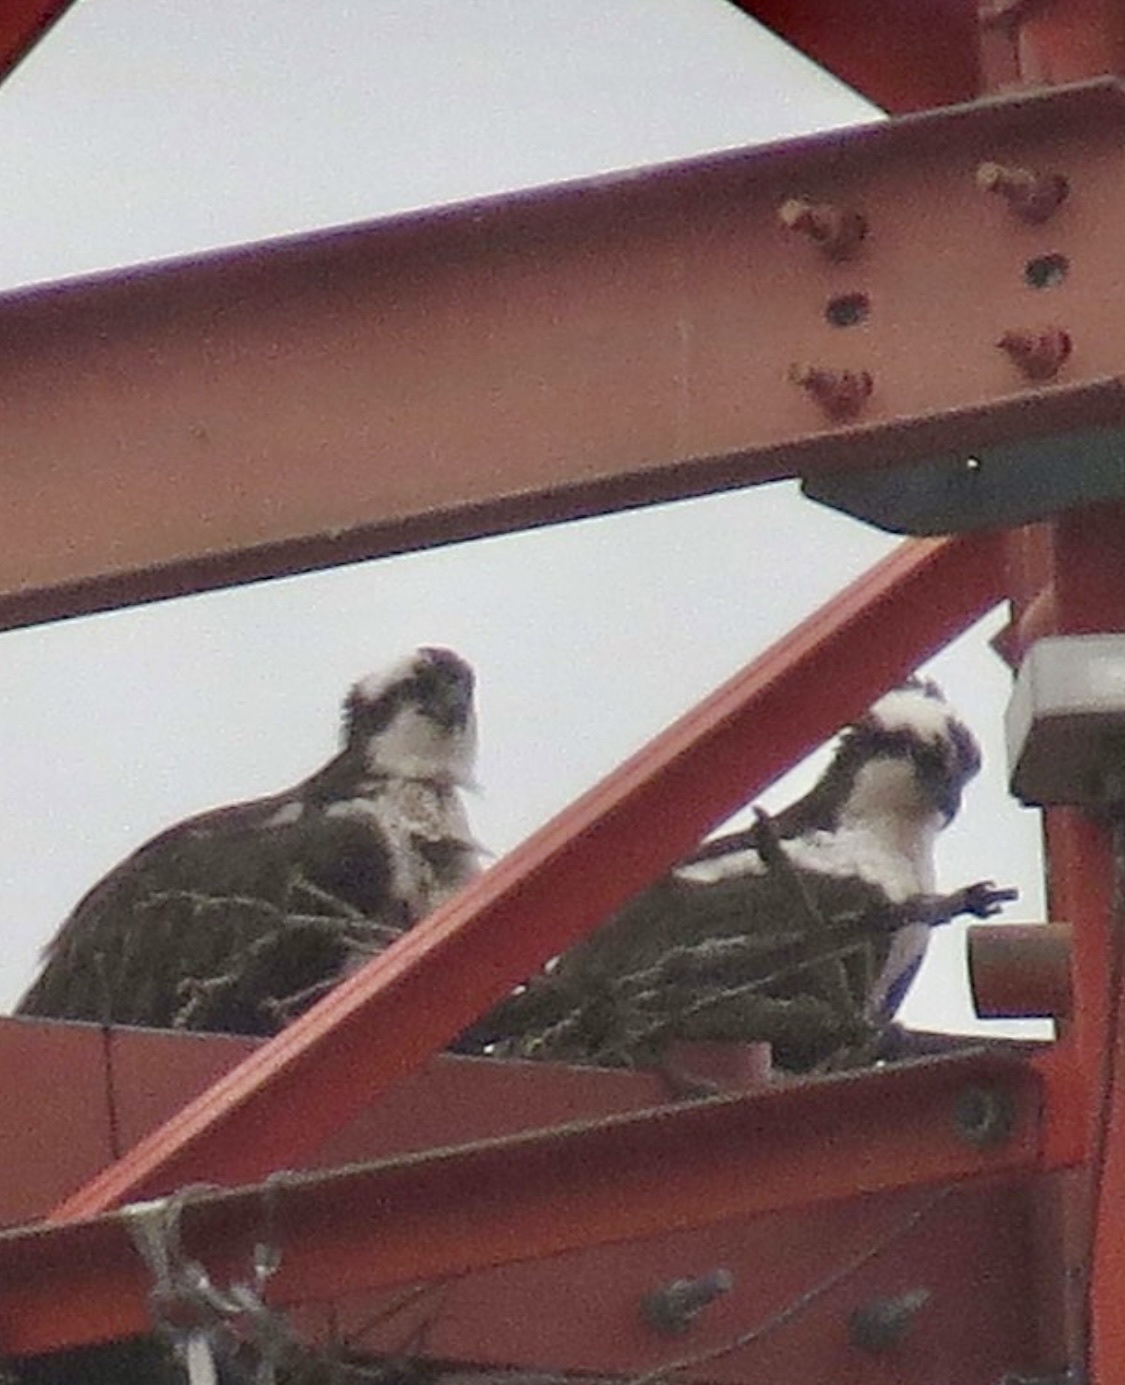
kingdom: Animalia
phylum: Chordata
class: Aves
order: Accipitriformes
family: Pandionidae
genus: Pandion
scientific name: Pandion haliaetus
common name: Osprey
